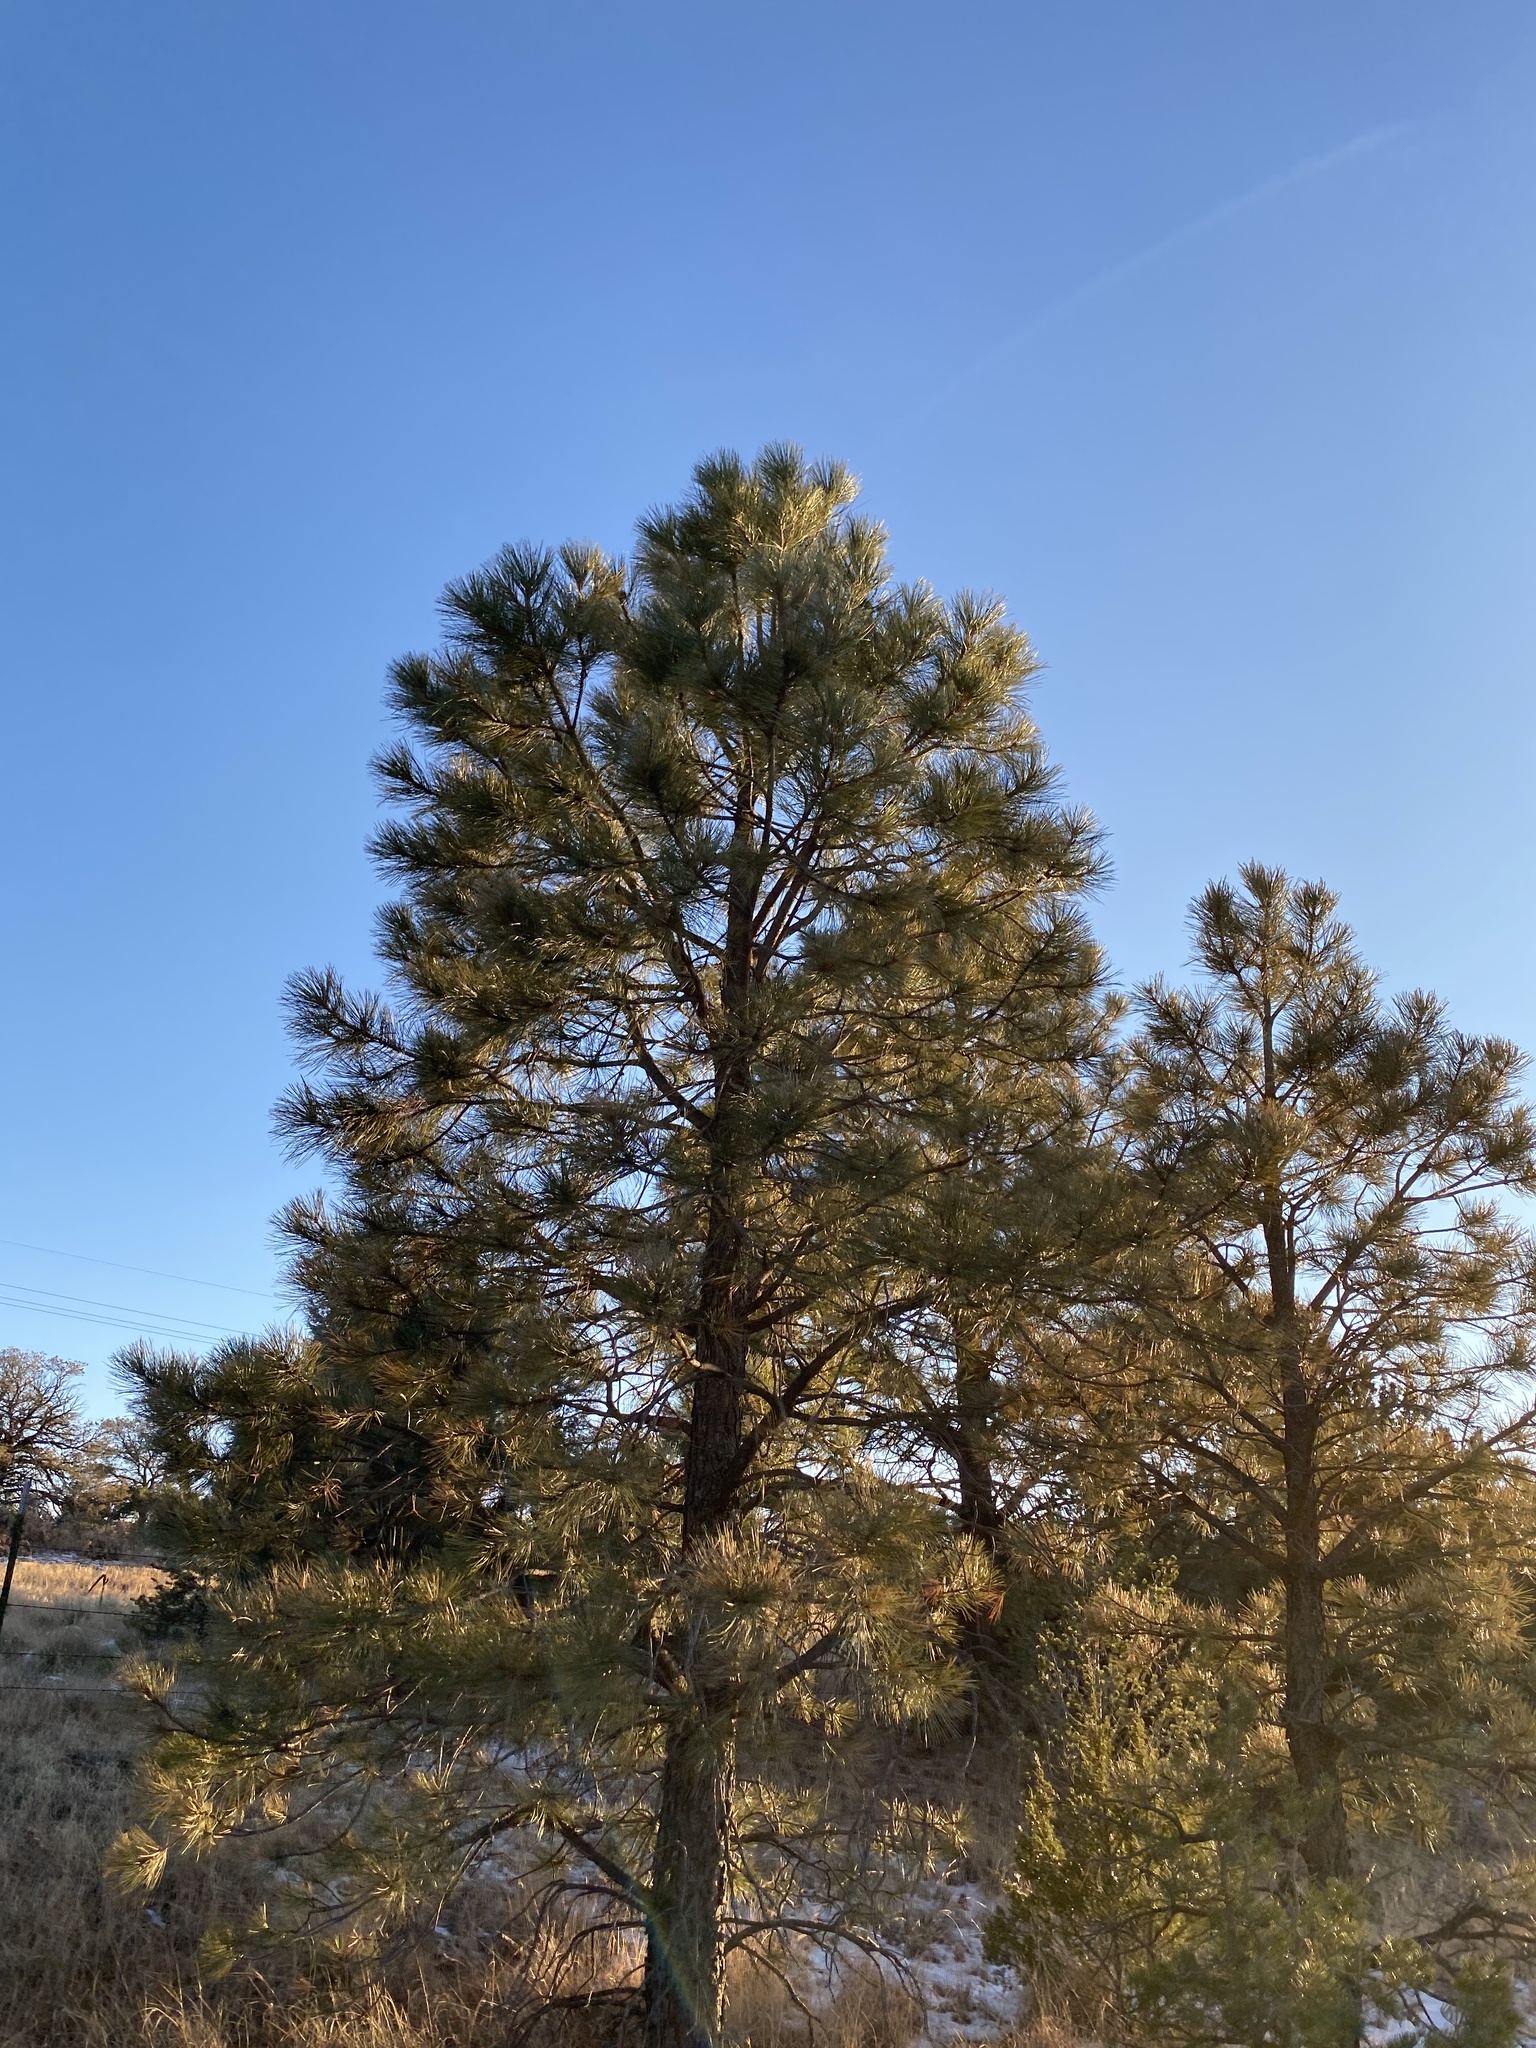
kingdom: Plantae
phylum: Tracheophyta
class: Pinopsida
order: Pinales
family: Pinaceae
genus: Pinus
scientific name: Pinus ponderosa
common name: Western yellow-pine
